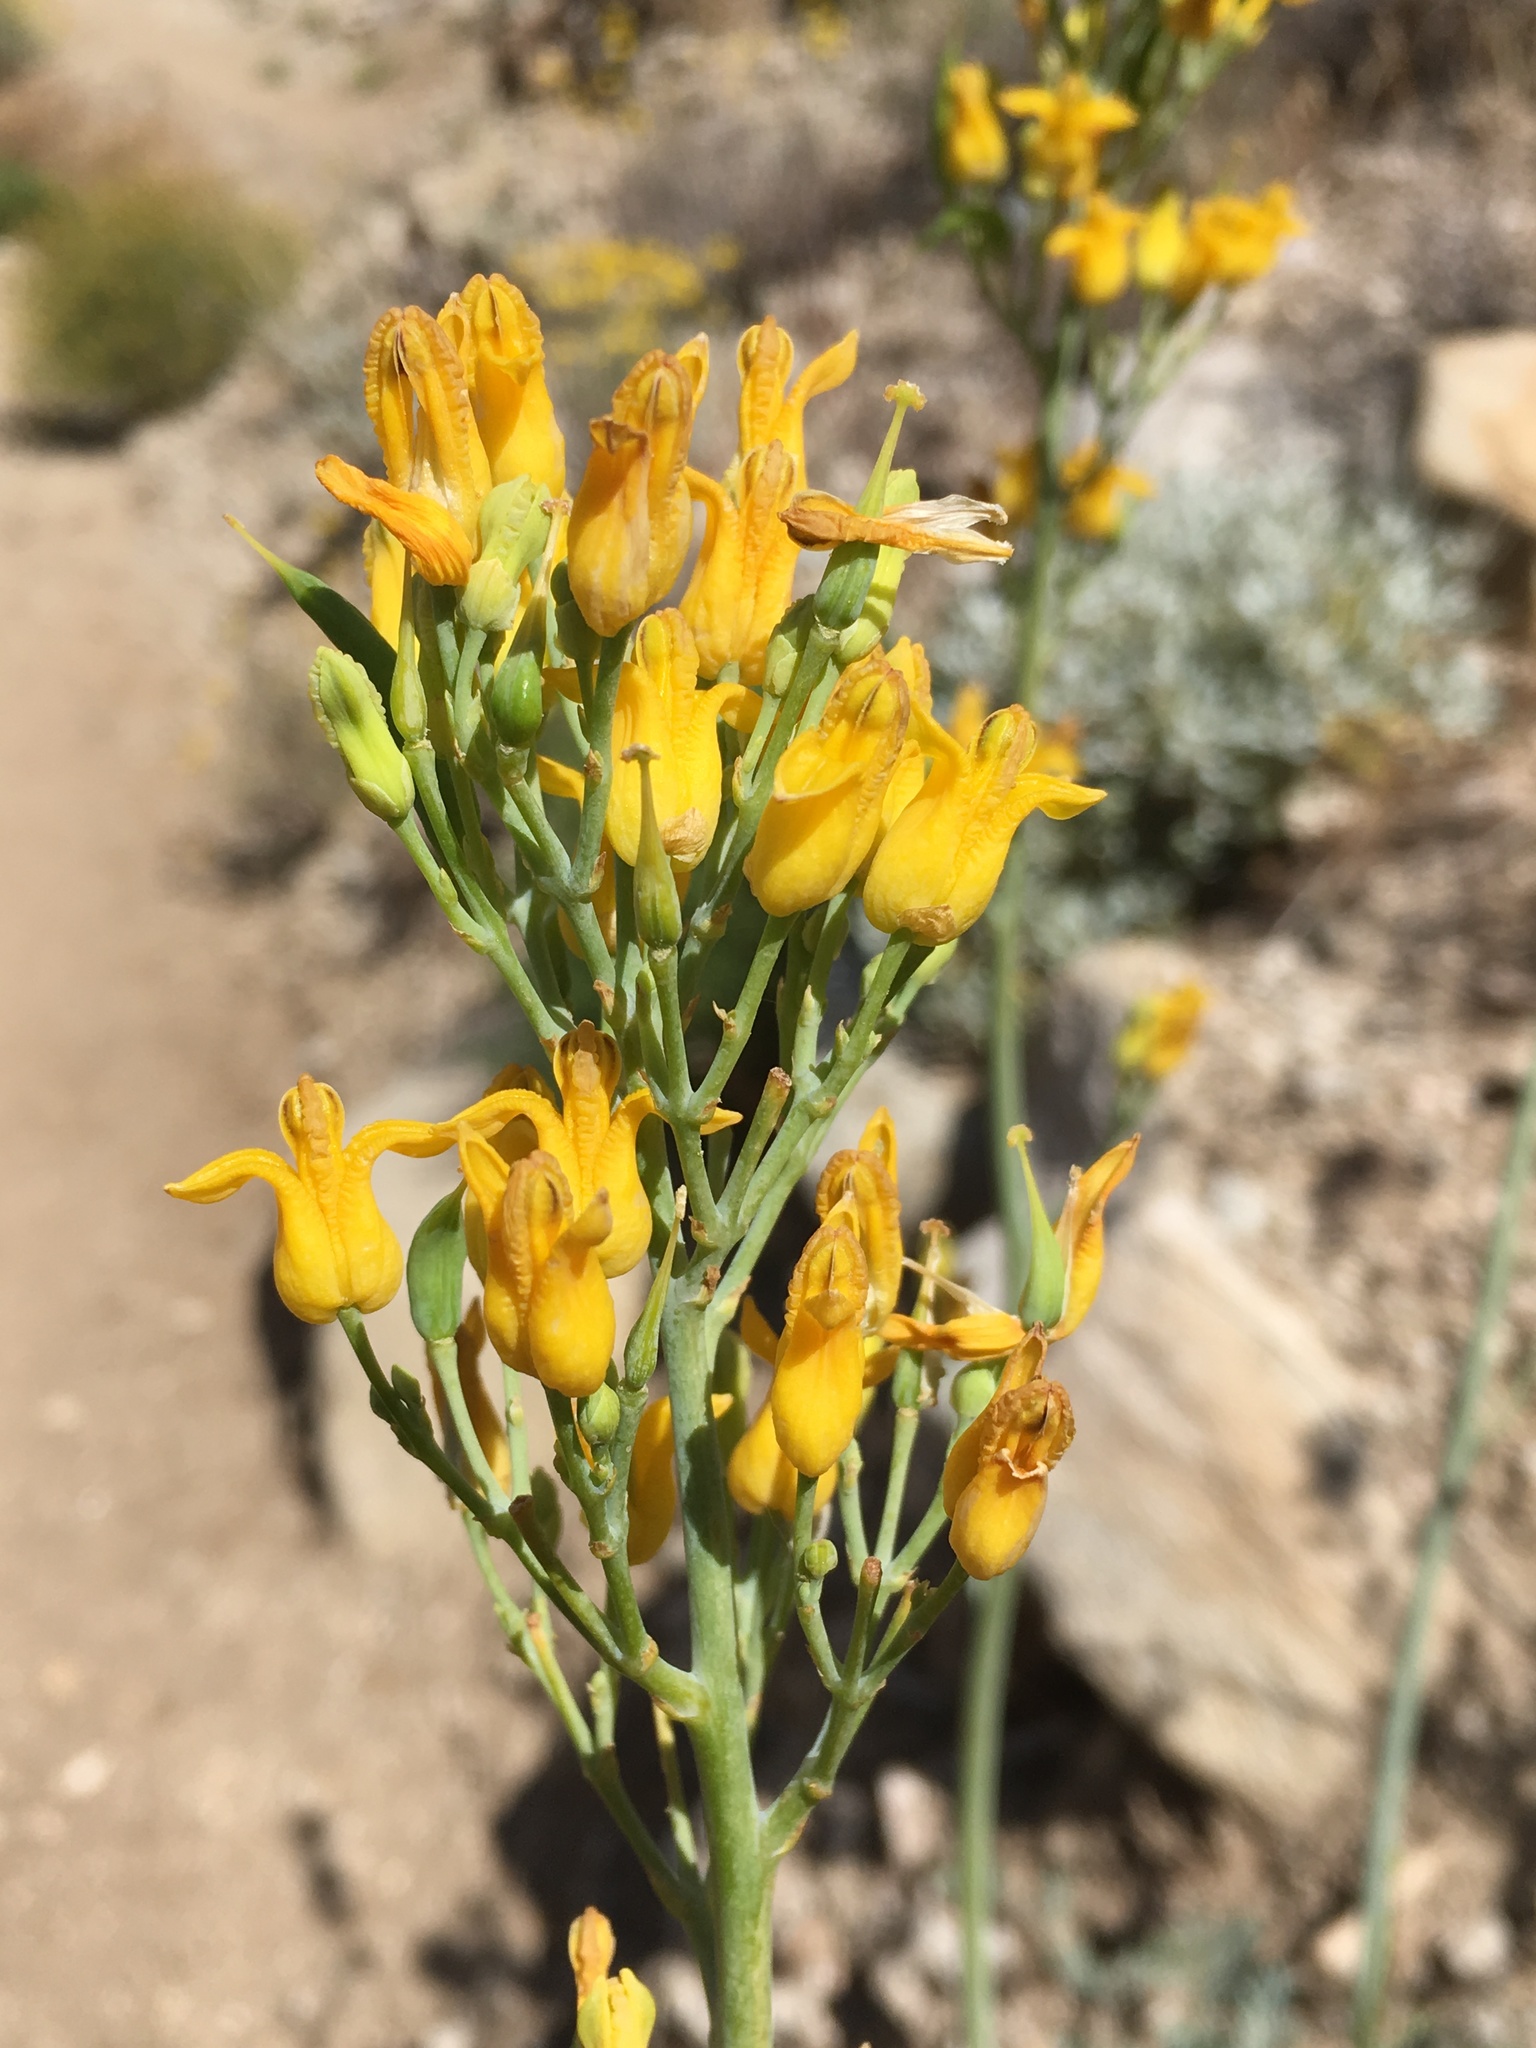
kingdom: Plantae
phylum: Tracheophyta
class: Magnoliopsida
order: Ranunculales
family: Papaveraceae
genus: Ehrendorferia
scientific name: Ehrendorferia chrysantha
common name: Golden eardrops
